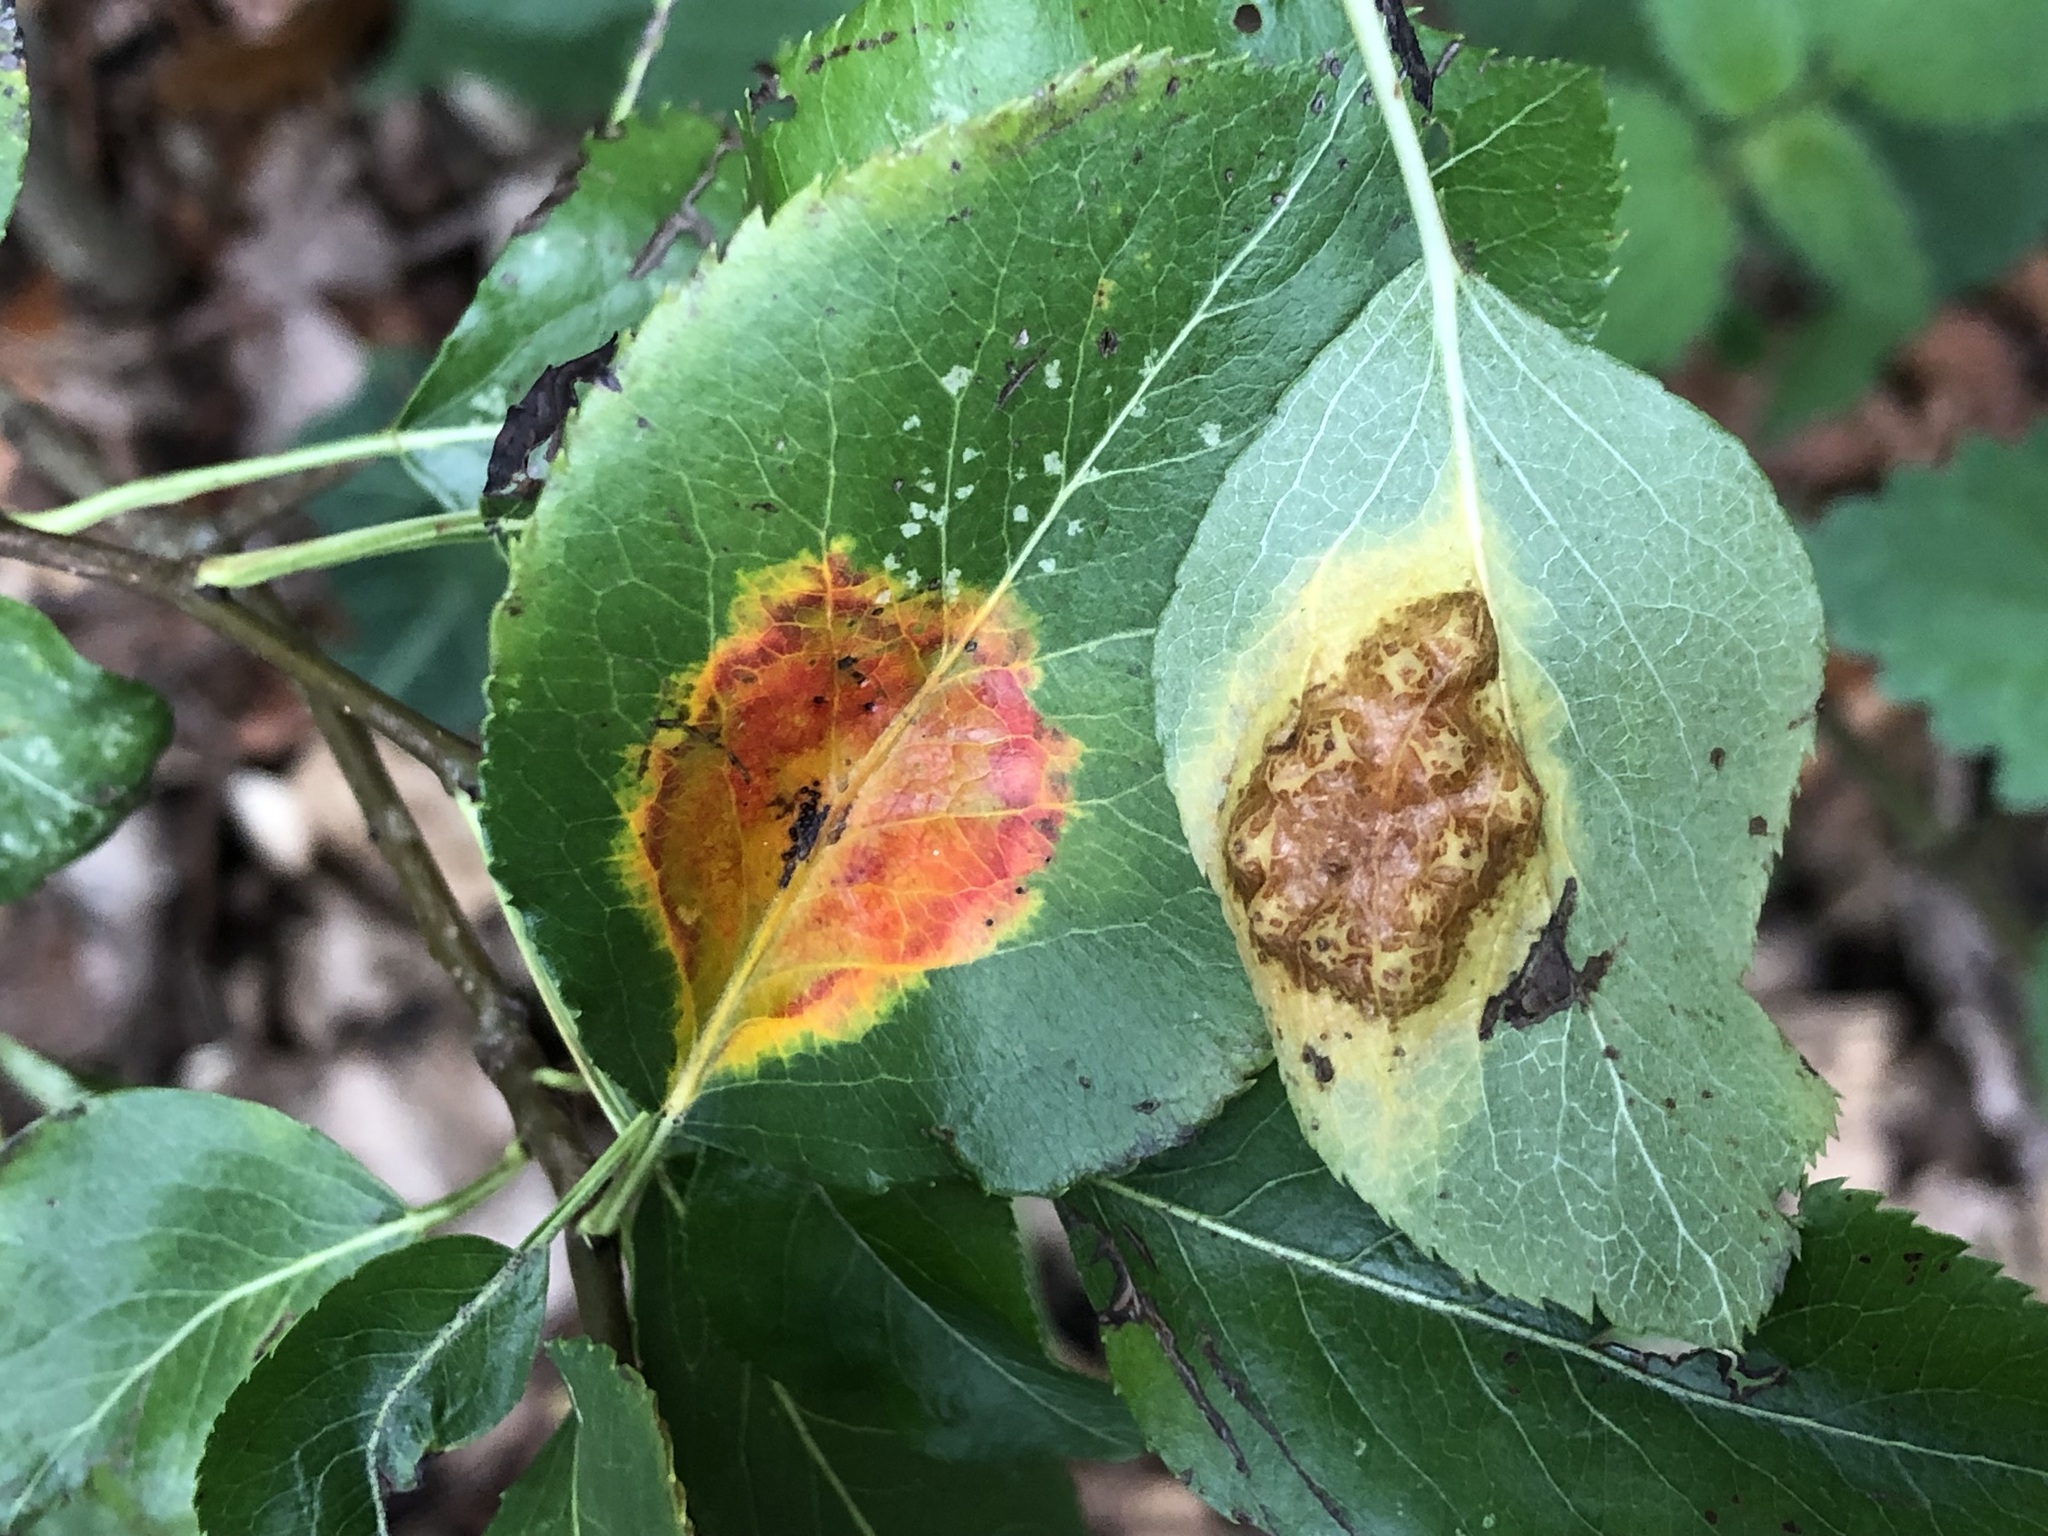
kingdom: Fungi
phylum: Basidiomycota
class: Pucciniomycetes
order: Pucciniales
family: Gymnosporangiaceae
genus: Gymnosporangium
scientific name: Gymnosporangium sabinae
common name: Pear trellis rust fungus
